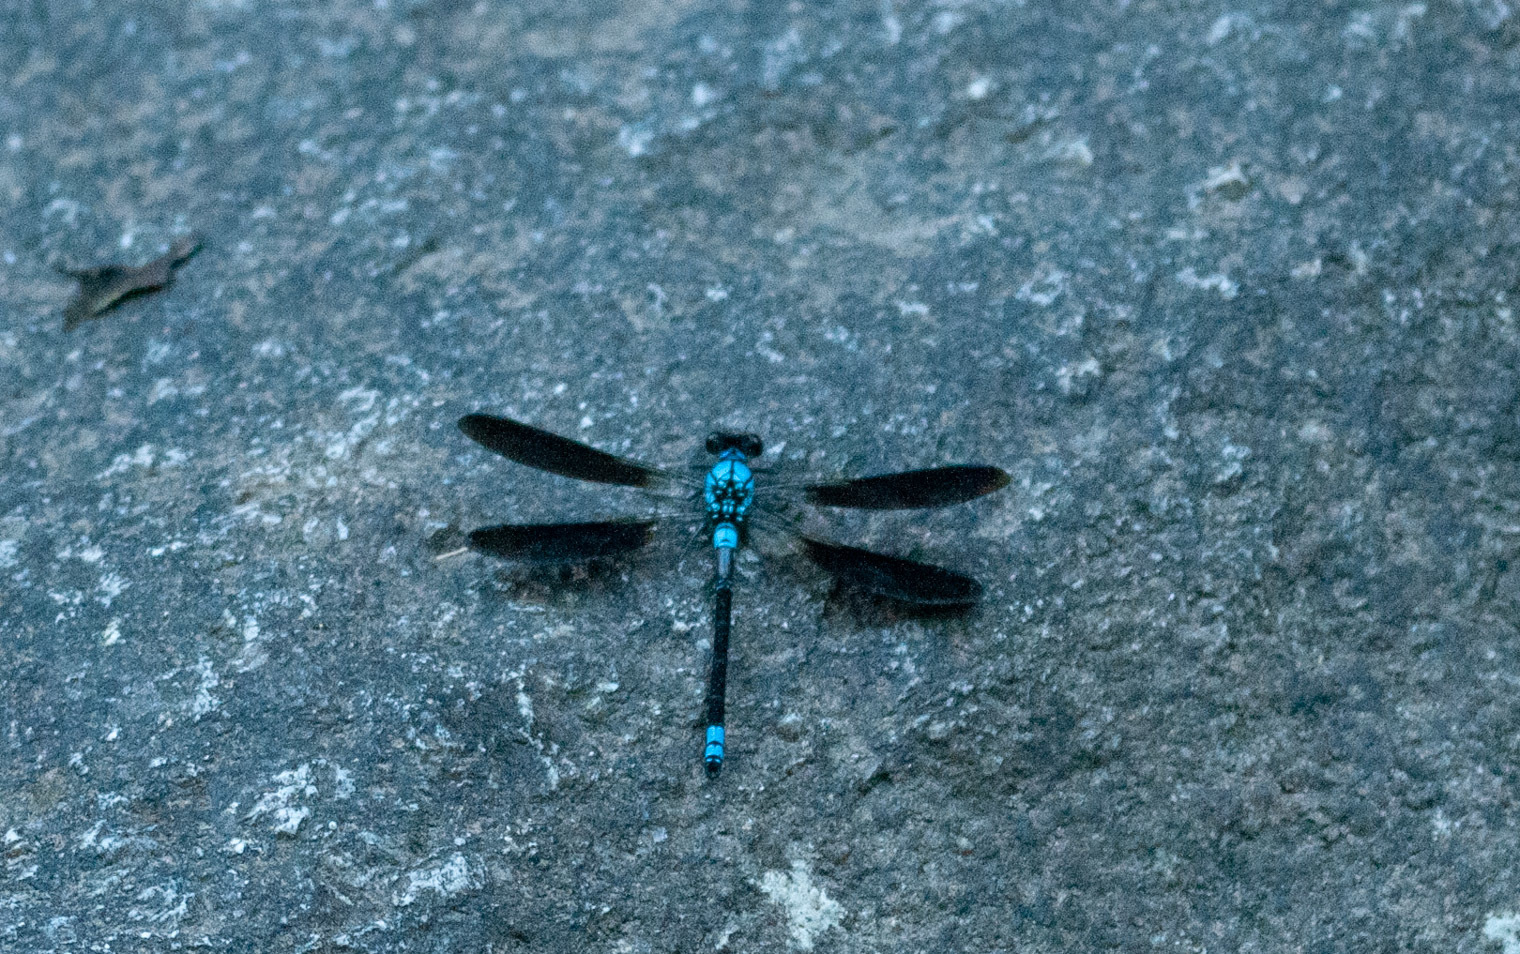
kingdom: Animalia
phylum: Arthropoda
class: Insecta
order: Odonata
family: Lestoideidae
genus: Diphlebia
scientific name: Diphlebia euphoeoides
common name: Tropical rockmaster
